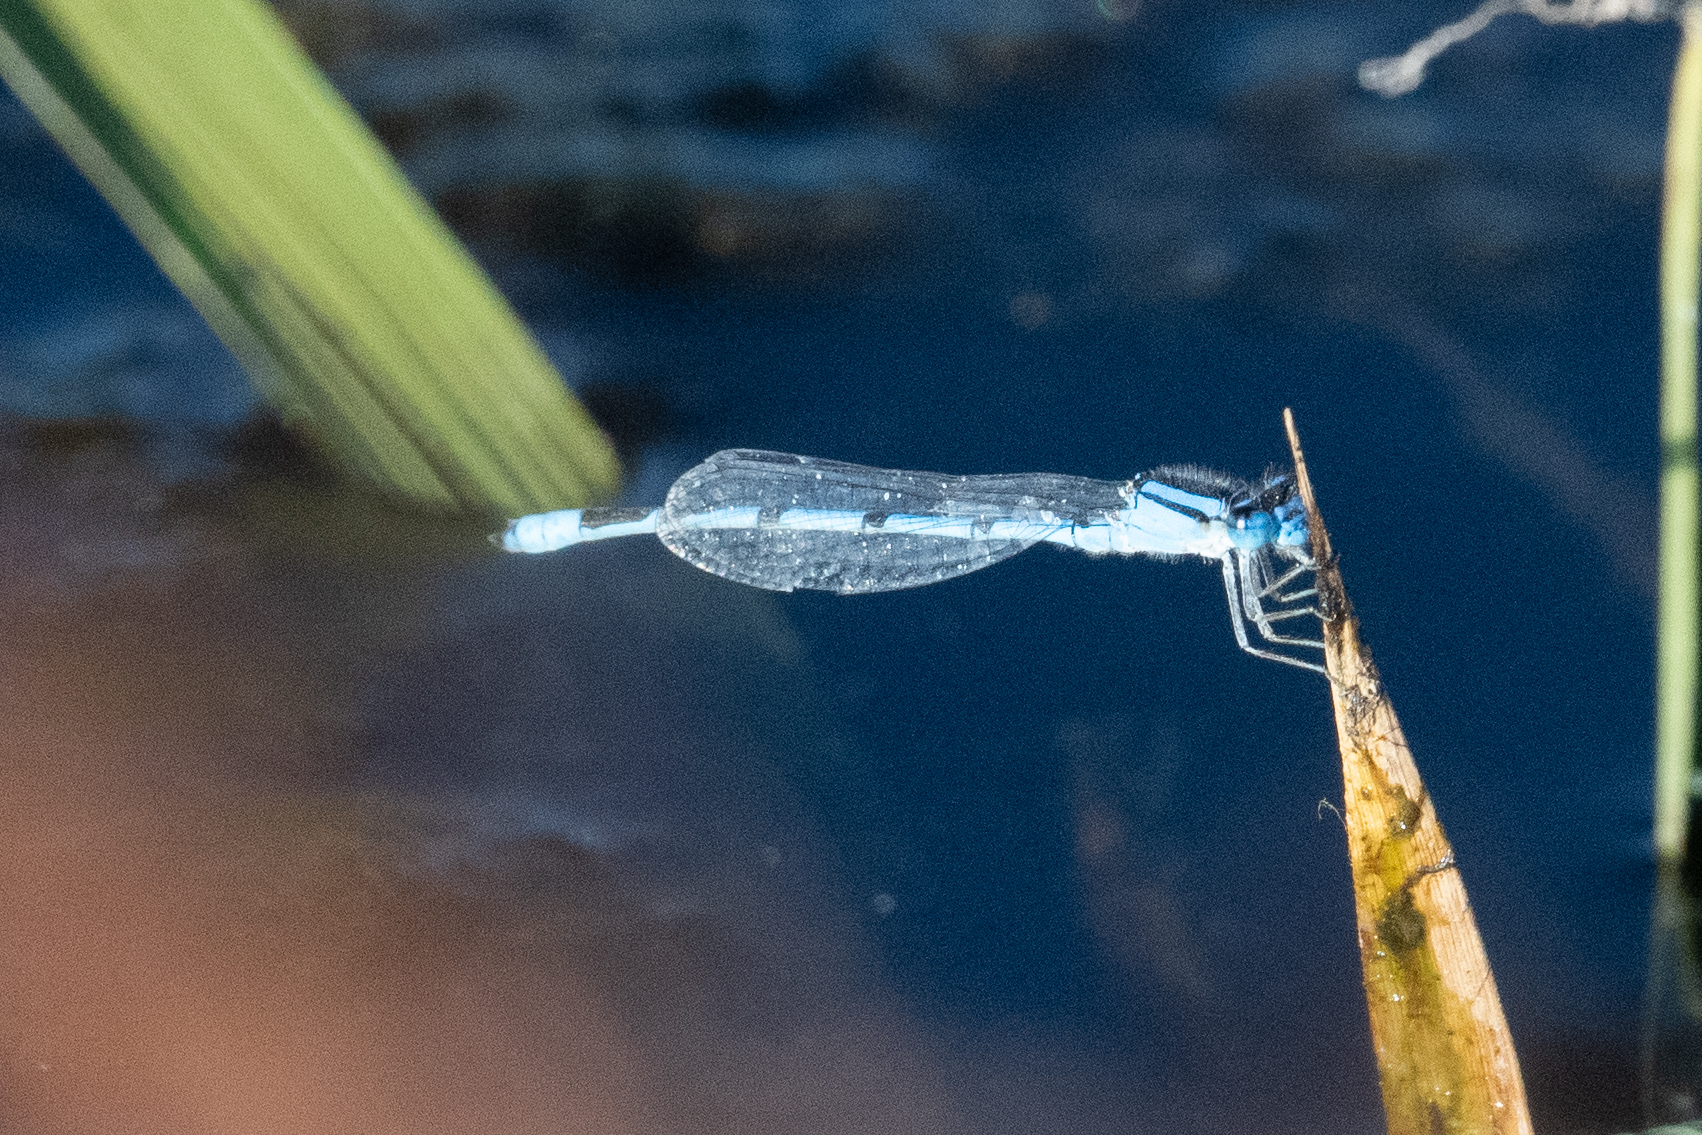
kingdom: Animalia
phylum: Arthropoda
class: Insecta
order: Odonata
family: Coenagrionidae
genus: Enallagma
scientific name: Enallagma civile
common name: Damselfly
